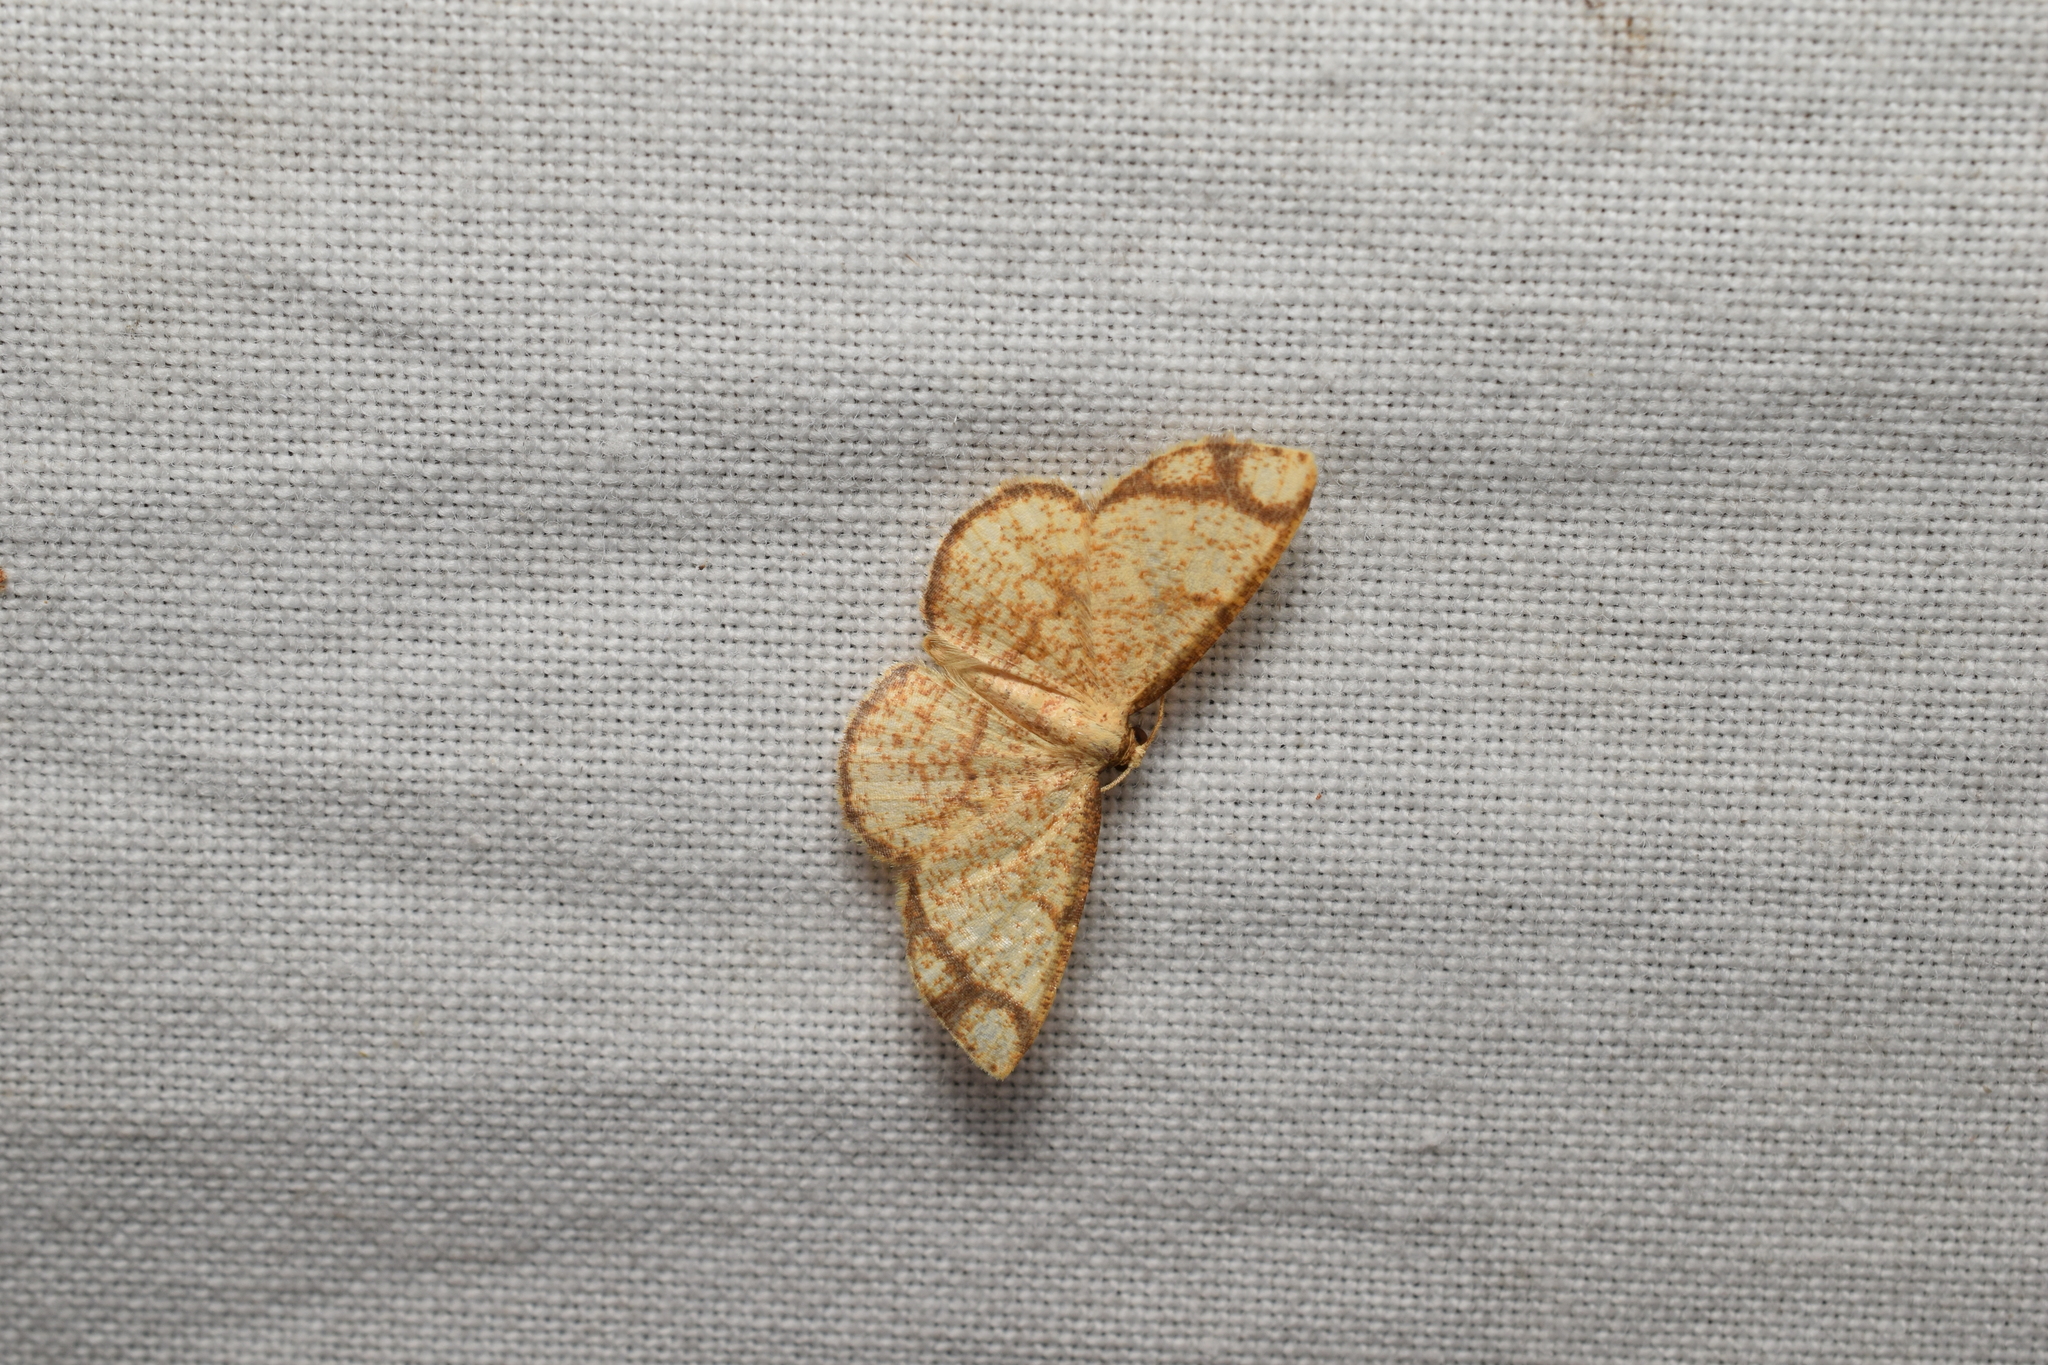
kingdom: Animalia
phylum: Arthropoda
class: Insecta
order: Lepidoptera
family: Geometridae
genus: Heterostegane
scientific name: Heterostegane hyriaria
